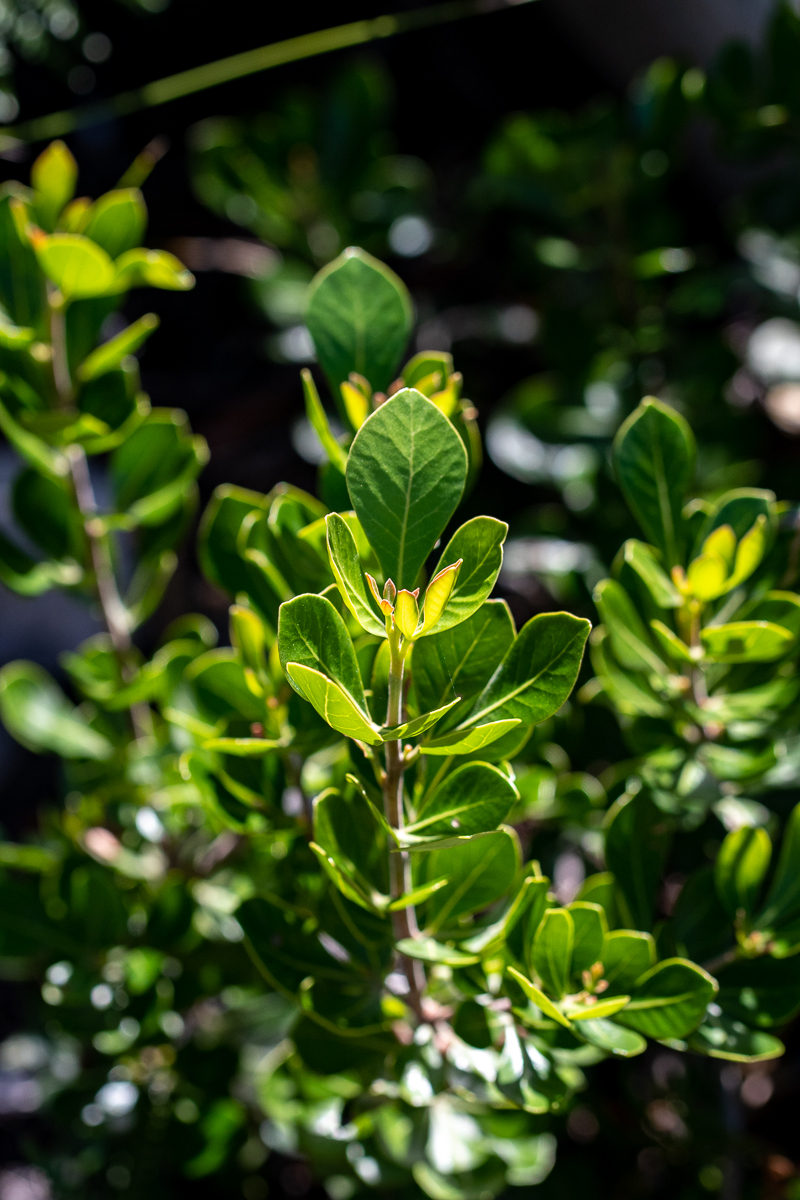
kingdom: Plantae
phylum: Tracheophyta
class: Magnoliopsida
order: Sapindales
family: Anacardiaceae
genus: Searsia
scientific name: Searsia lucida
